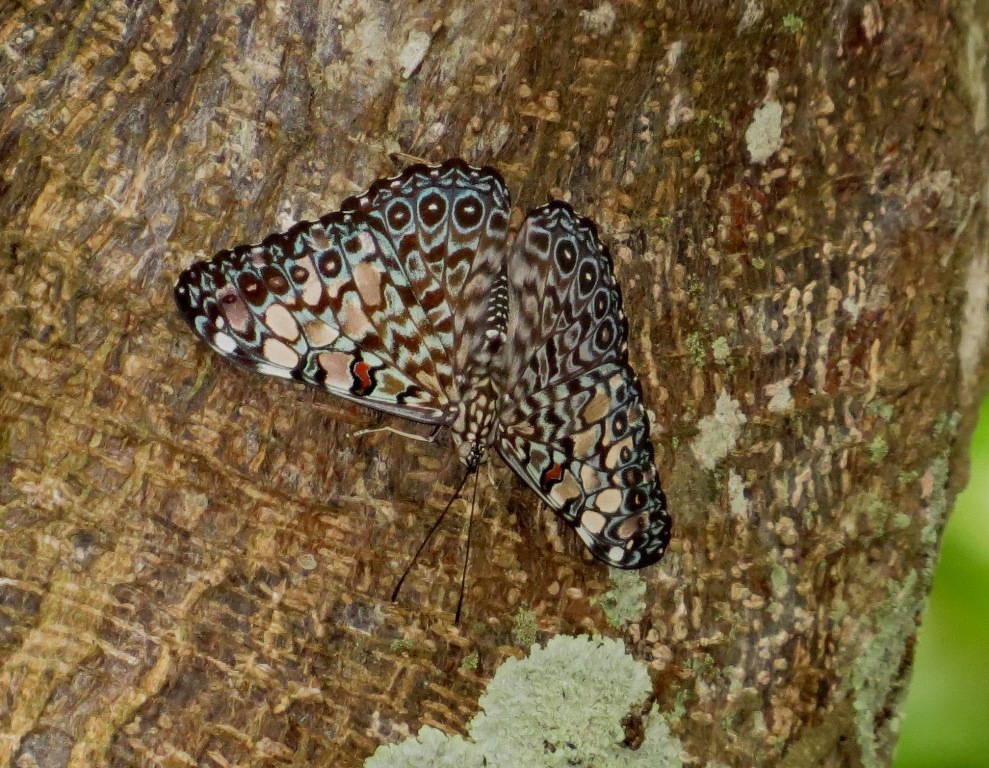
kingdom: Animalia
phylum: Arthropoda
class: Insecta
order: Lepidoptera
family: Nymphalidae
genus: Hamadryas
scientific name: Hamadryas feronia
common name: Variable cracker
